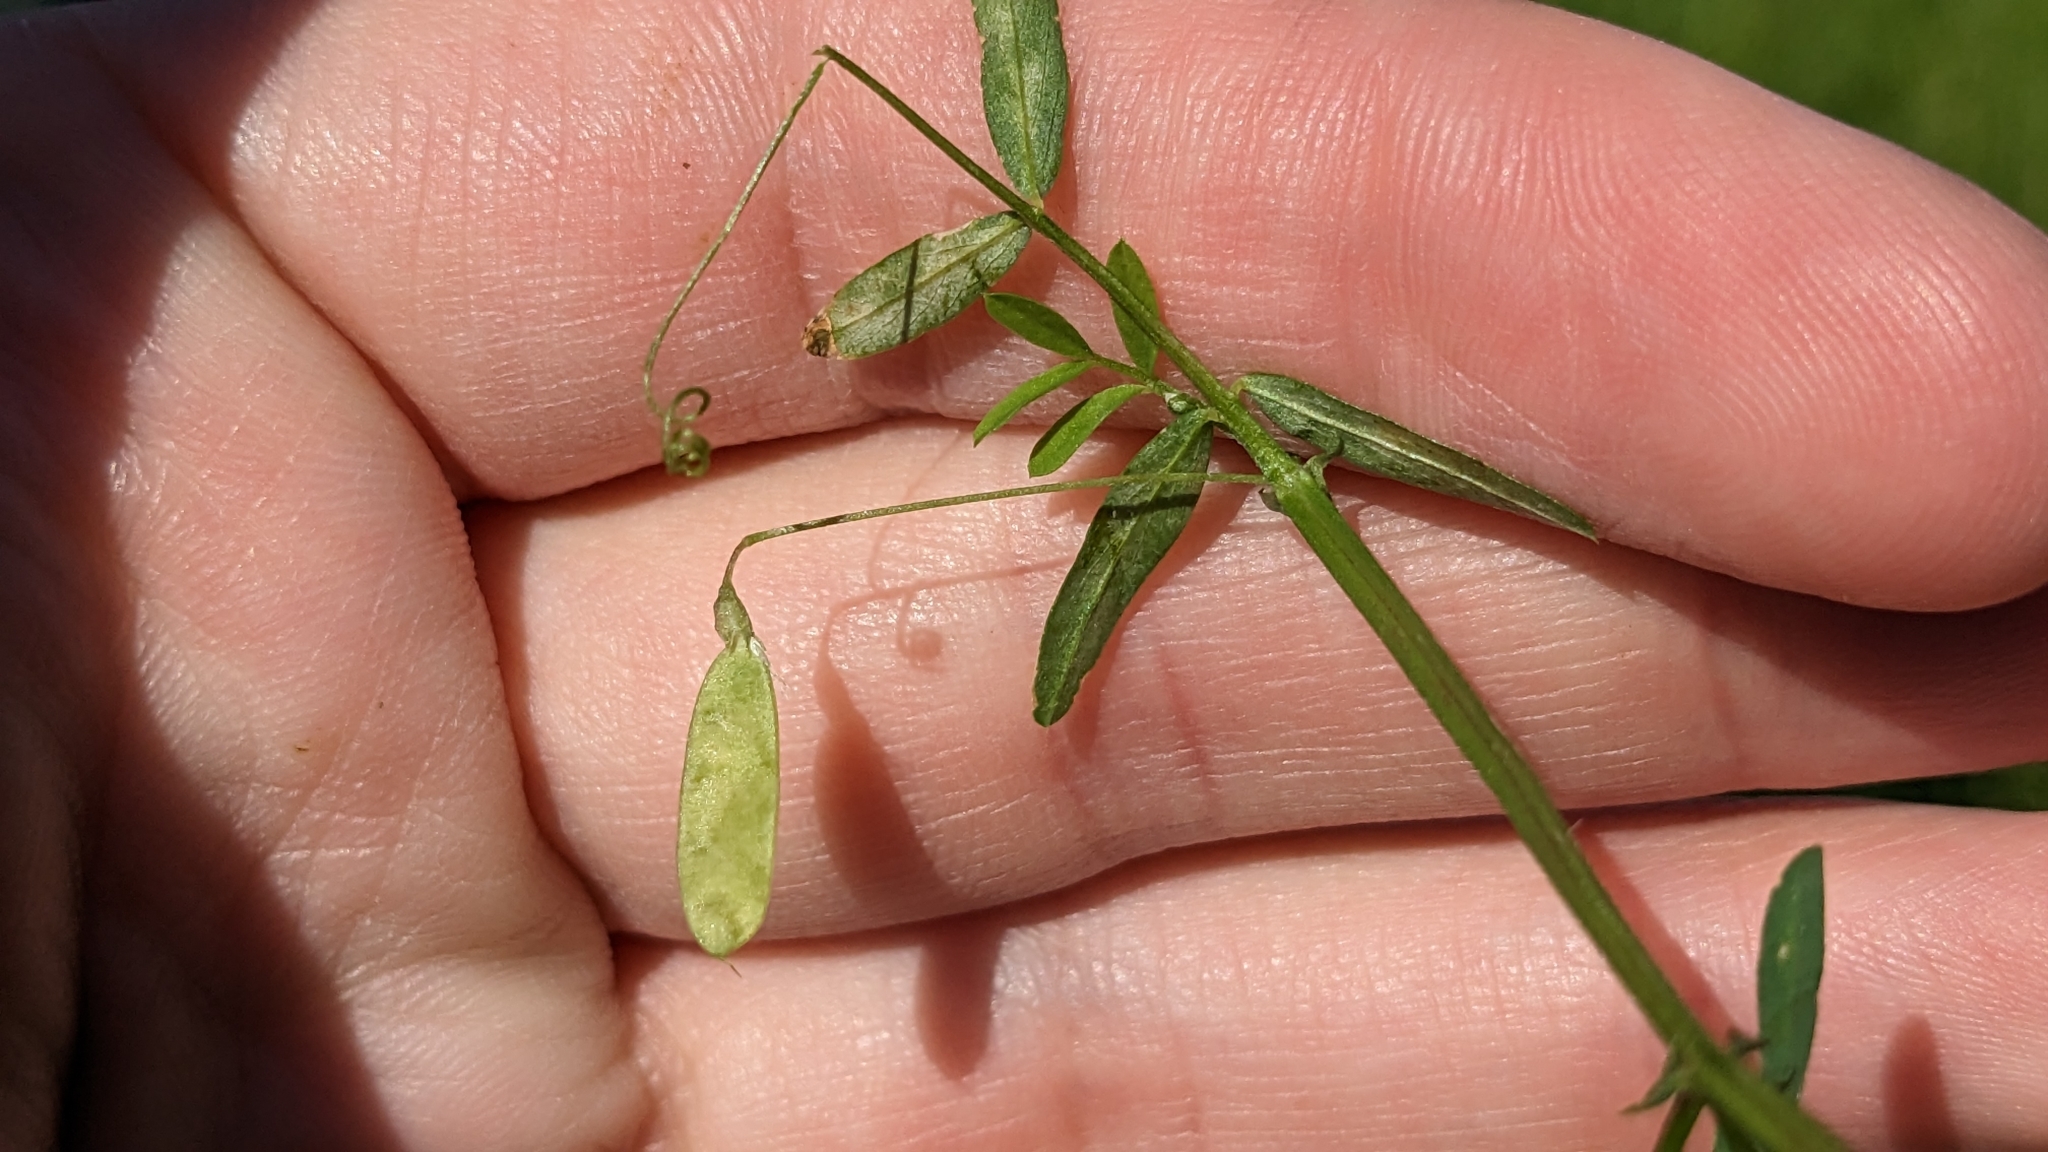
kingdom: Plantae
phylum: Tracheophyta
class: Magnoliopsida
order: Fabales
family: Fabaceae
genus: Vicia
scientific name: Vicia tetrasperma
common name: Smooth tare
